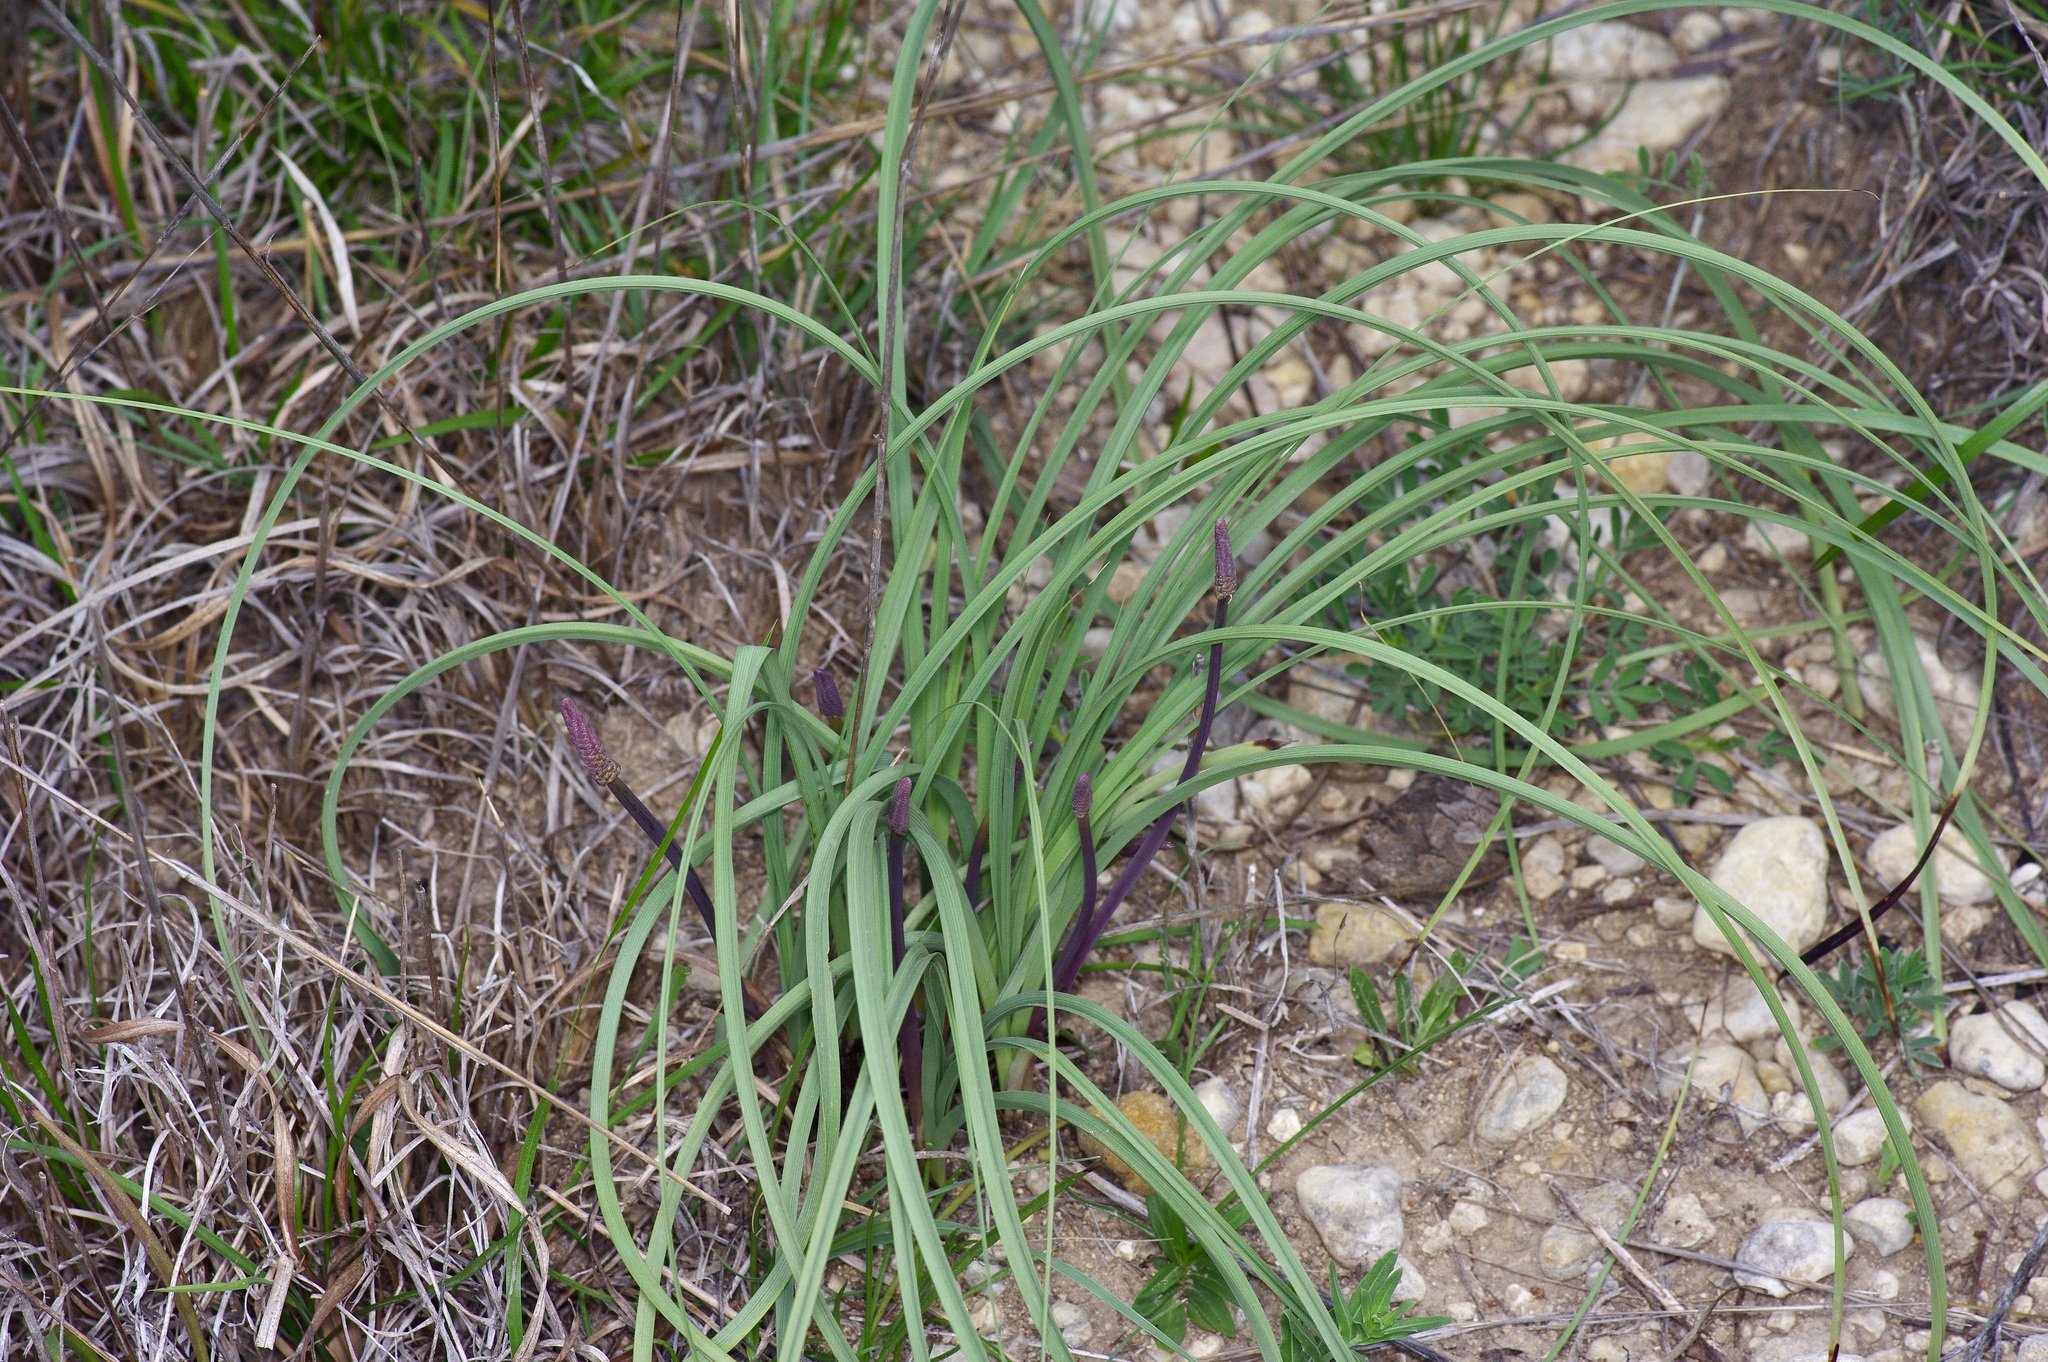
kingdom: Plantae
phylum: Tracheophyta
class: Liliopsida
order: Liliales
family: Melanthiaceae
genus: Schoenocaulon
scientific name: Schoenocaulon texanum
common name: Texas feather-shank
